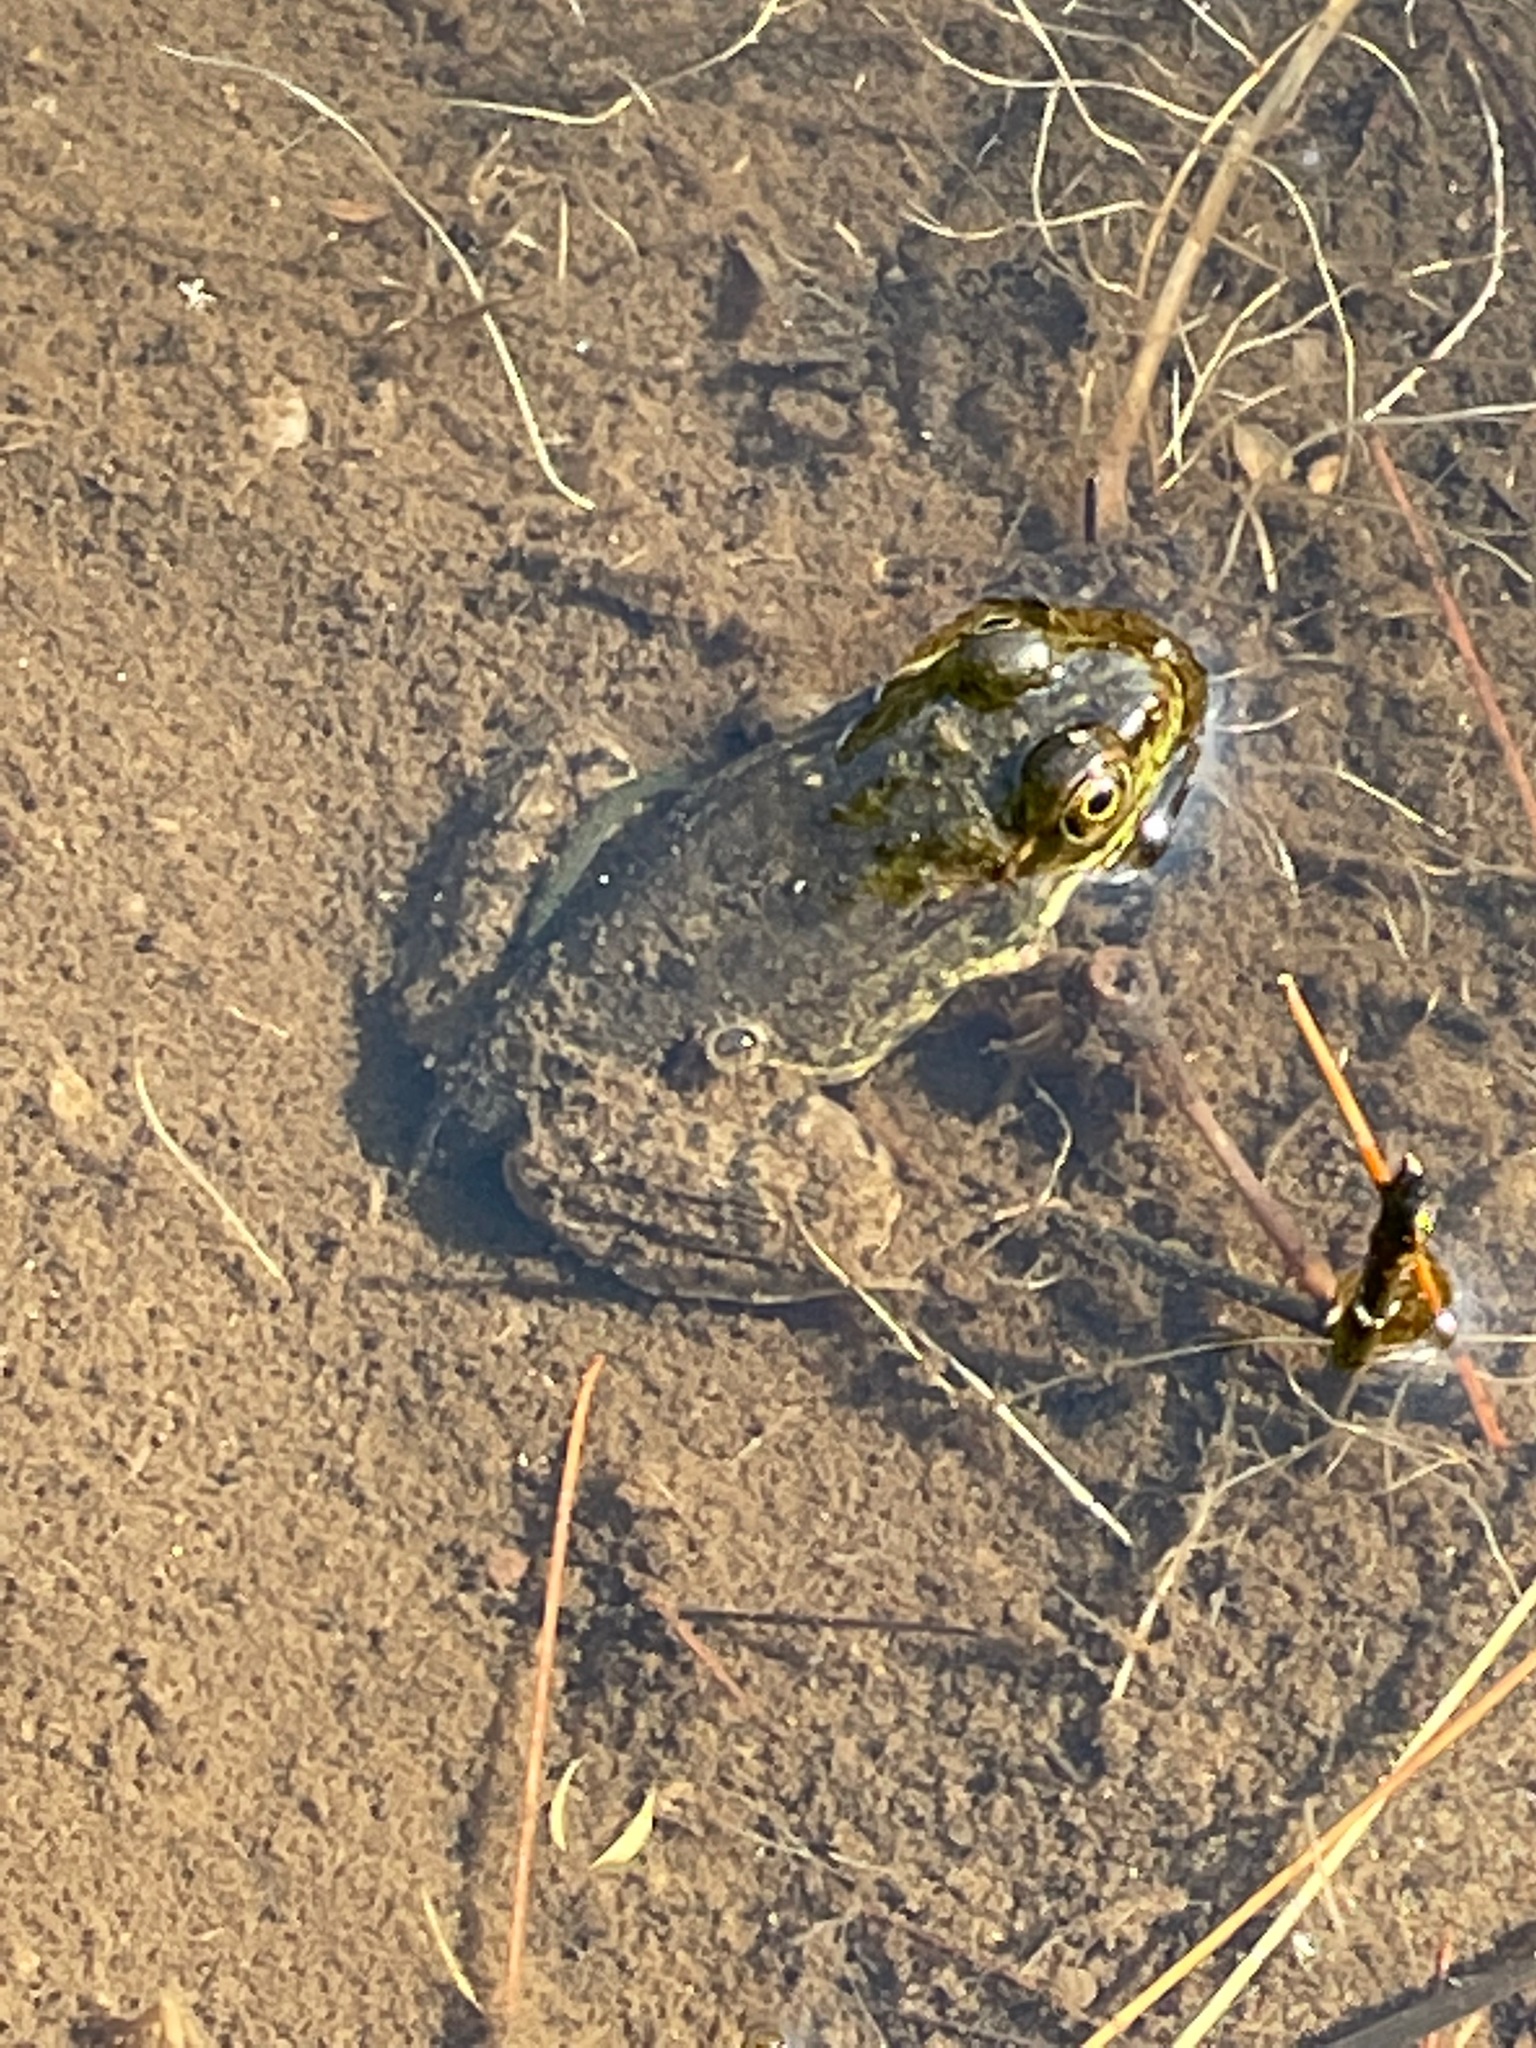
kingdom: Animalia
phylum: Chordata
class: Amphibia
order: Anura
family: Ranidae
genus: Lithobates
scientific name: Lithobates clamitans
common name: Green frog
